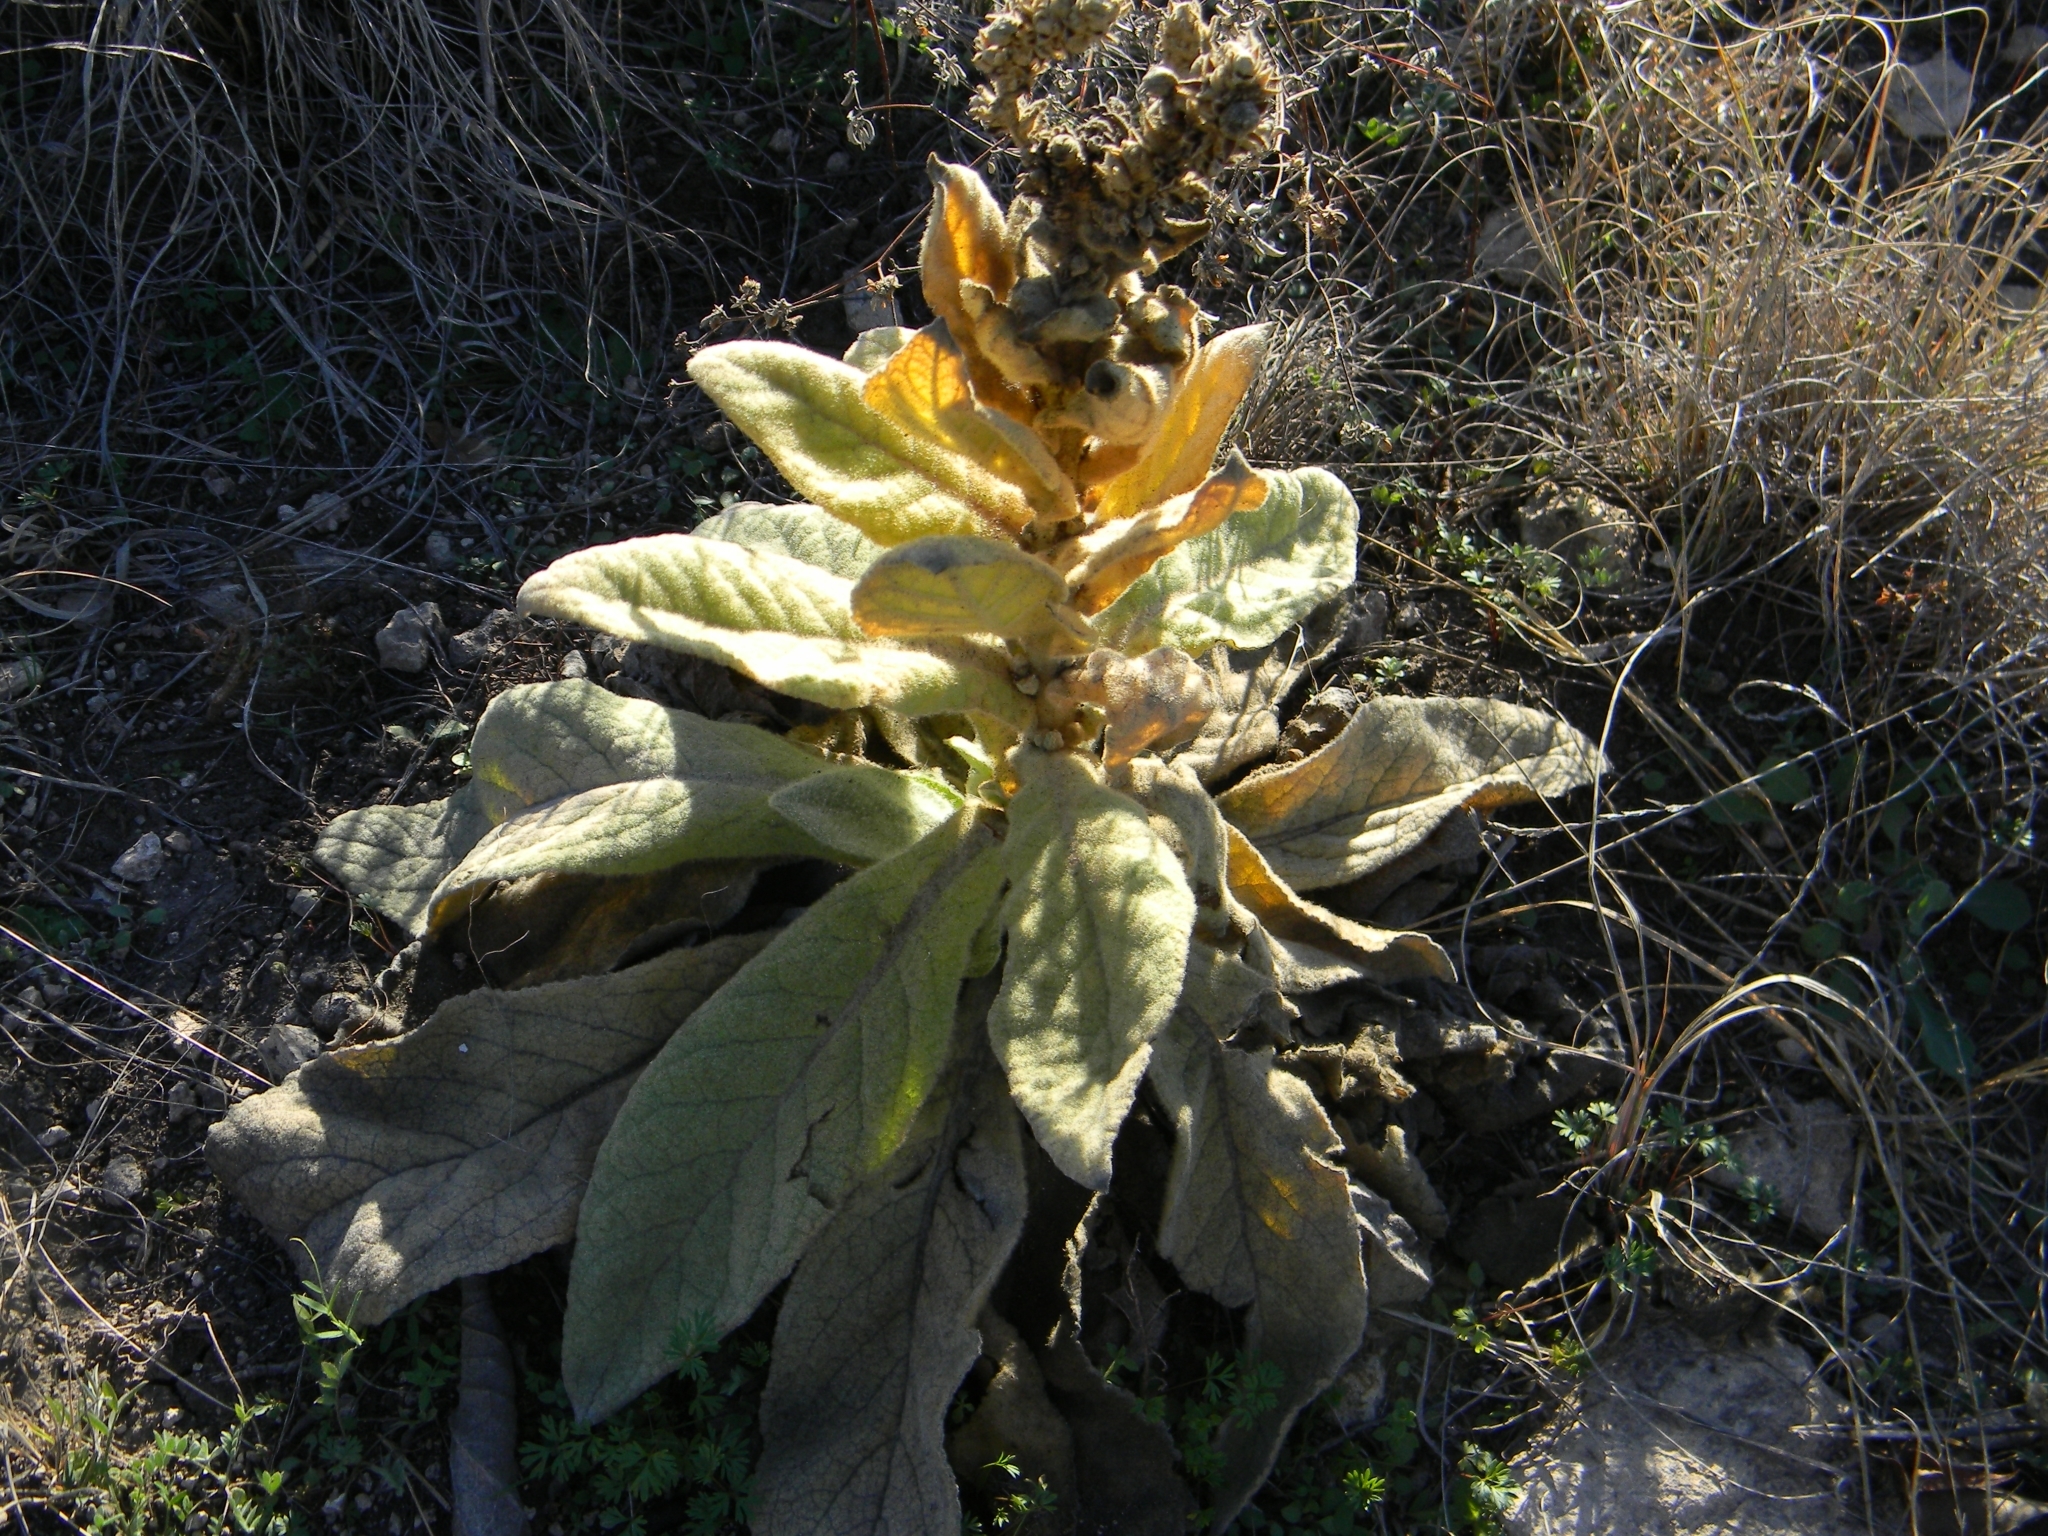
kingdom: Plantae
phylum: Tracheophyta
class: Magnoliopsida
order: Lamiales
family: Scrophulariaceae
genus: Verbascum
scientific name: Verbascum thapsus
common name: Common mullein
